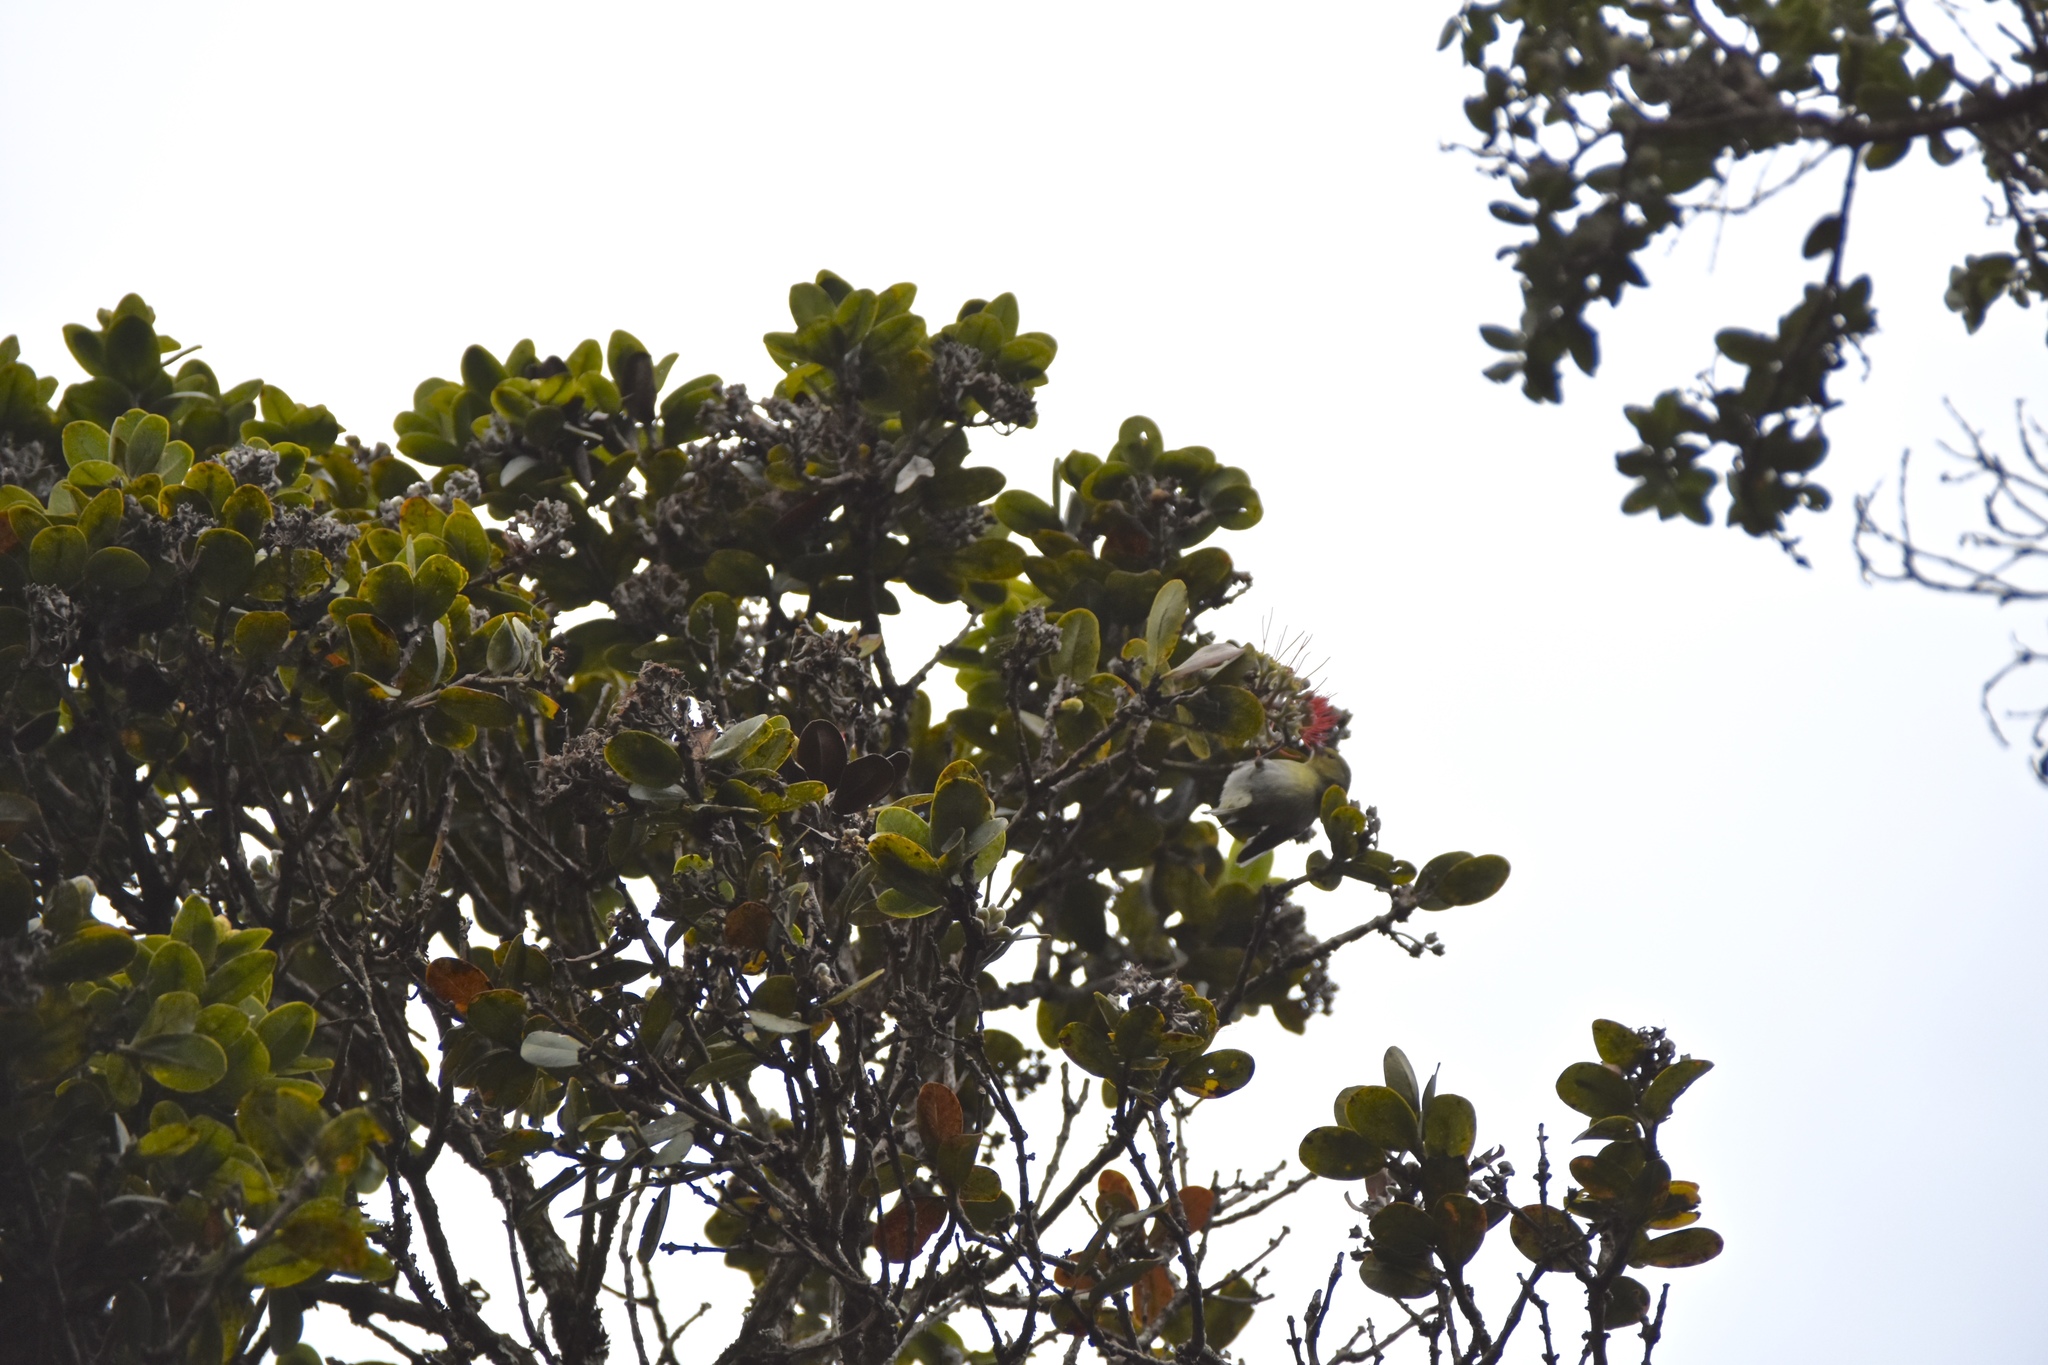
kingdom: Animalia
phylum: Chordata
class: Aves
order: Passeriformes
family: Fringillidae
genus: Chlorodrepanis
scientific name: Chlorodrepanis stejnegeri
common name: Kauai amakihi
